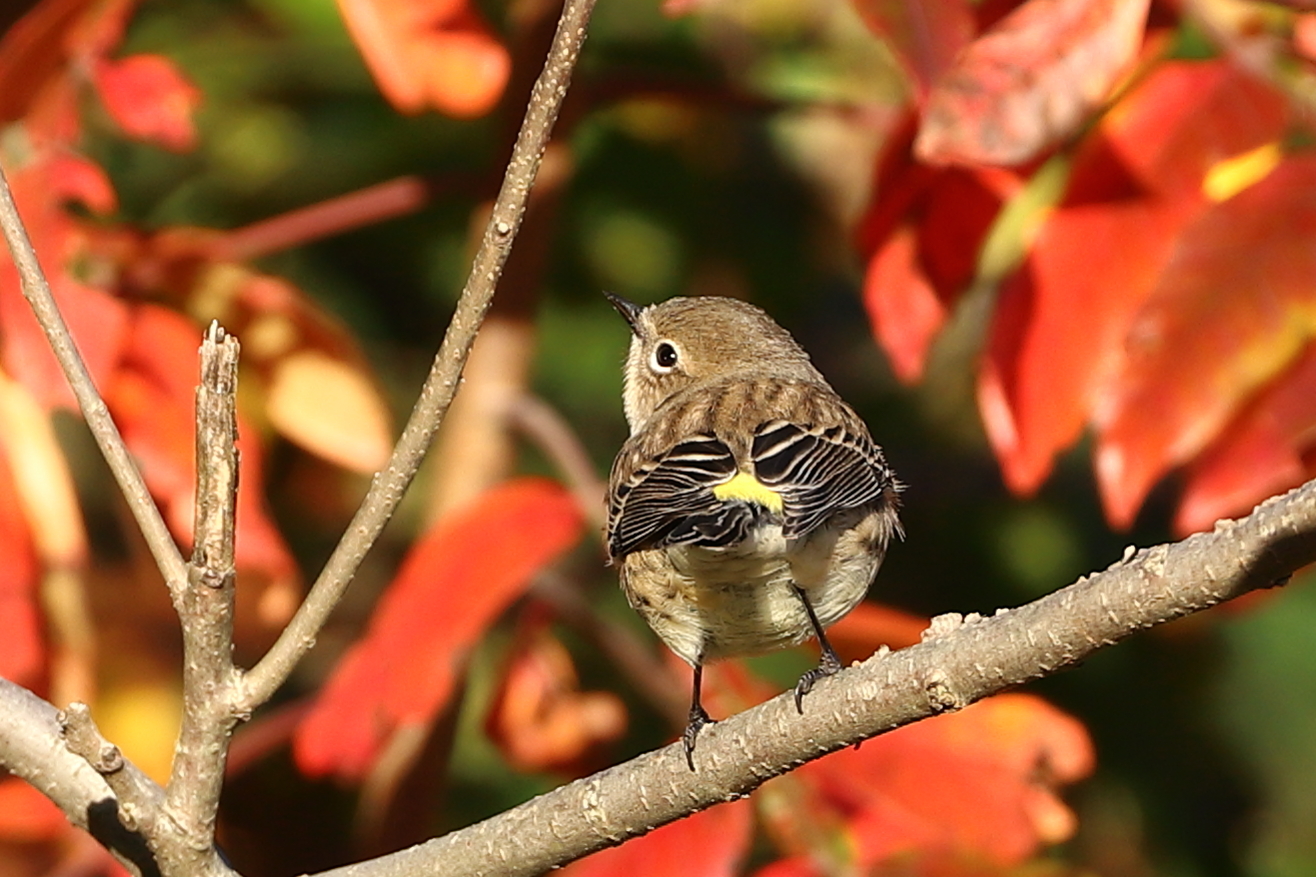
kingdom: Animalia
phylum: Chordata
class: Aves
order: Passeriformes
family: Parulidae
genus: Setophaga
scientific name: Setophaga coronata
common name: Myrtle warbler
